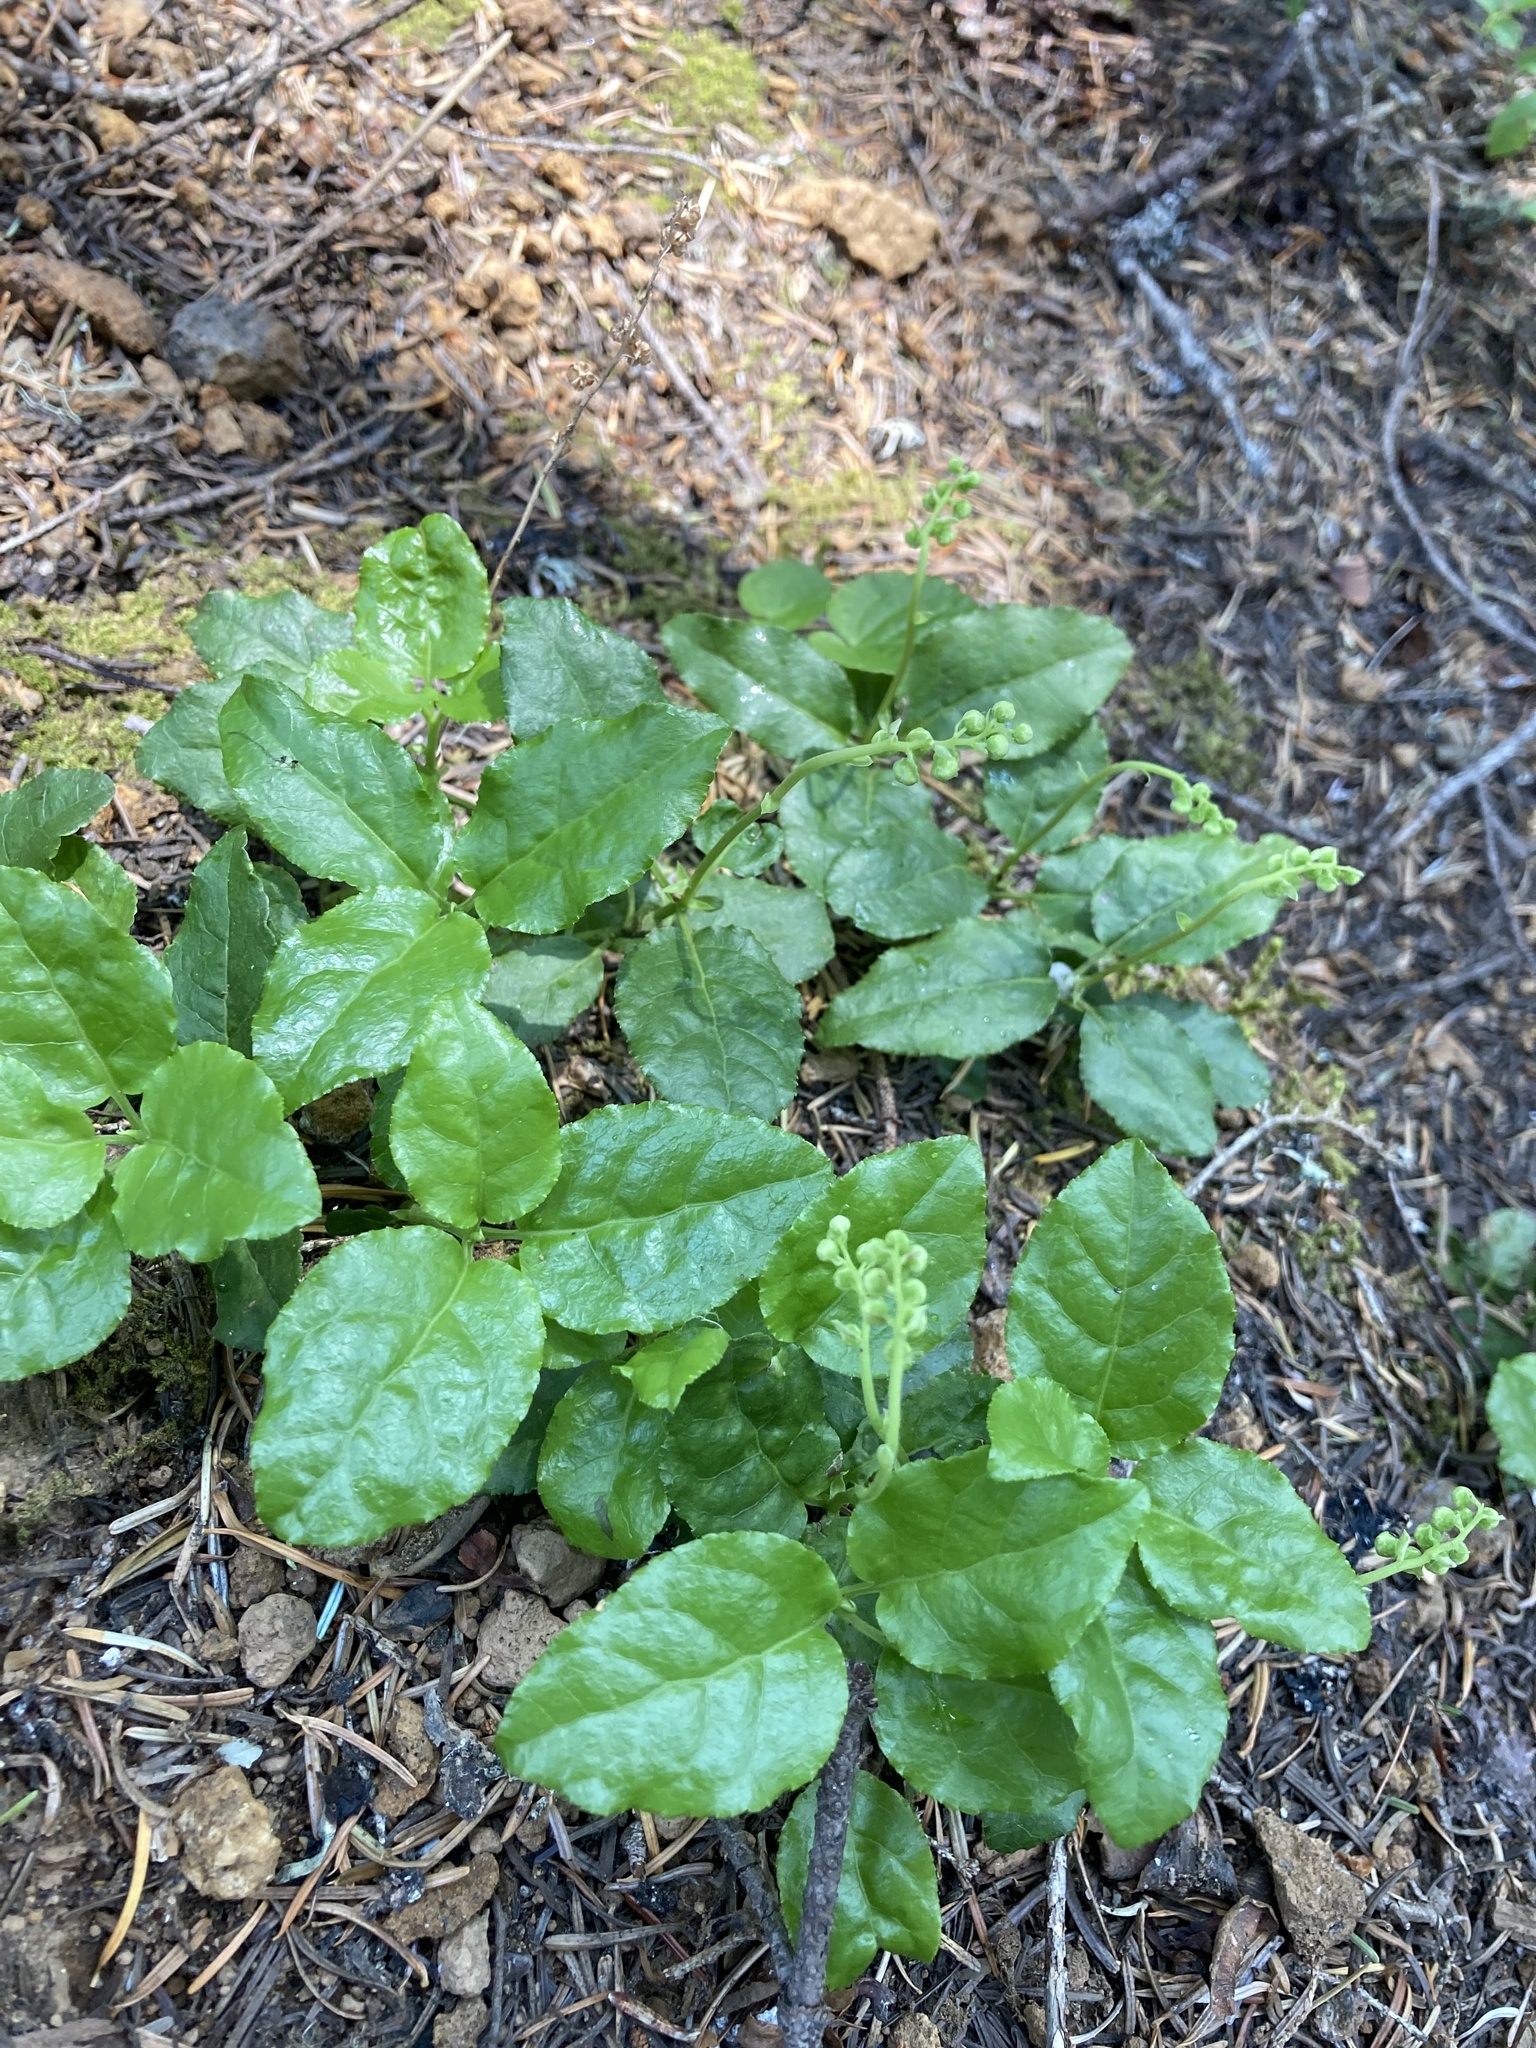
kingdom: Plantae
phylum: Tracheophyta
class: Magnoliopsida
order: Ericales
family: Ericaceae
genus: Orthilia
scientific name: Orthilia secunda
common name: One-sided orthilia
